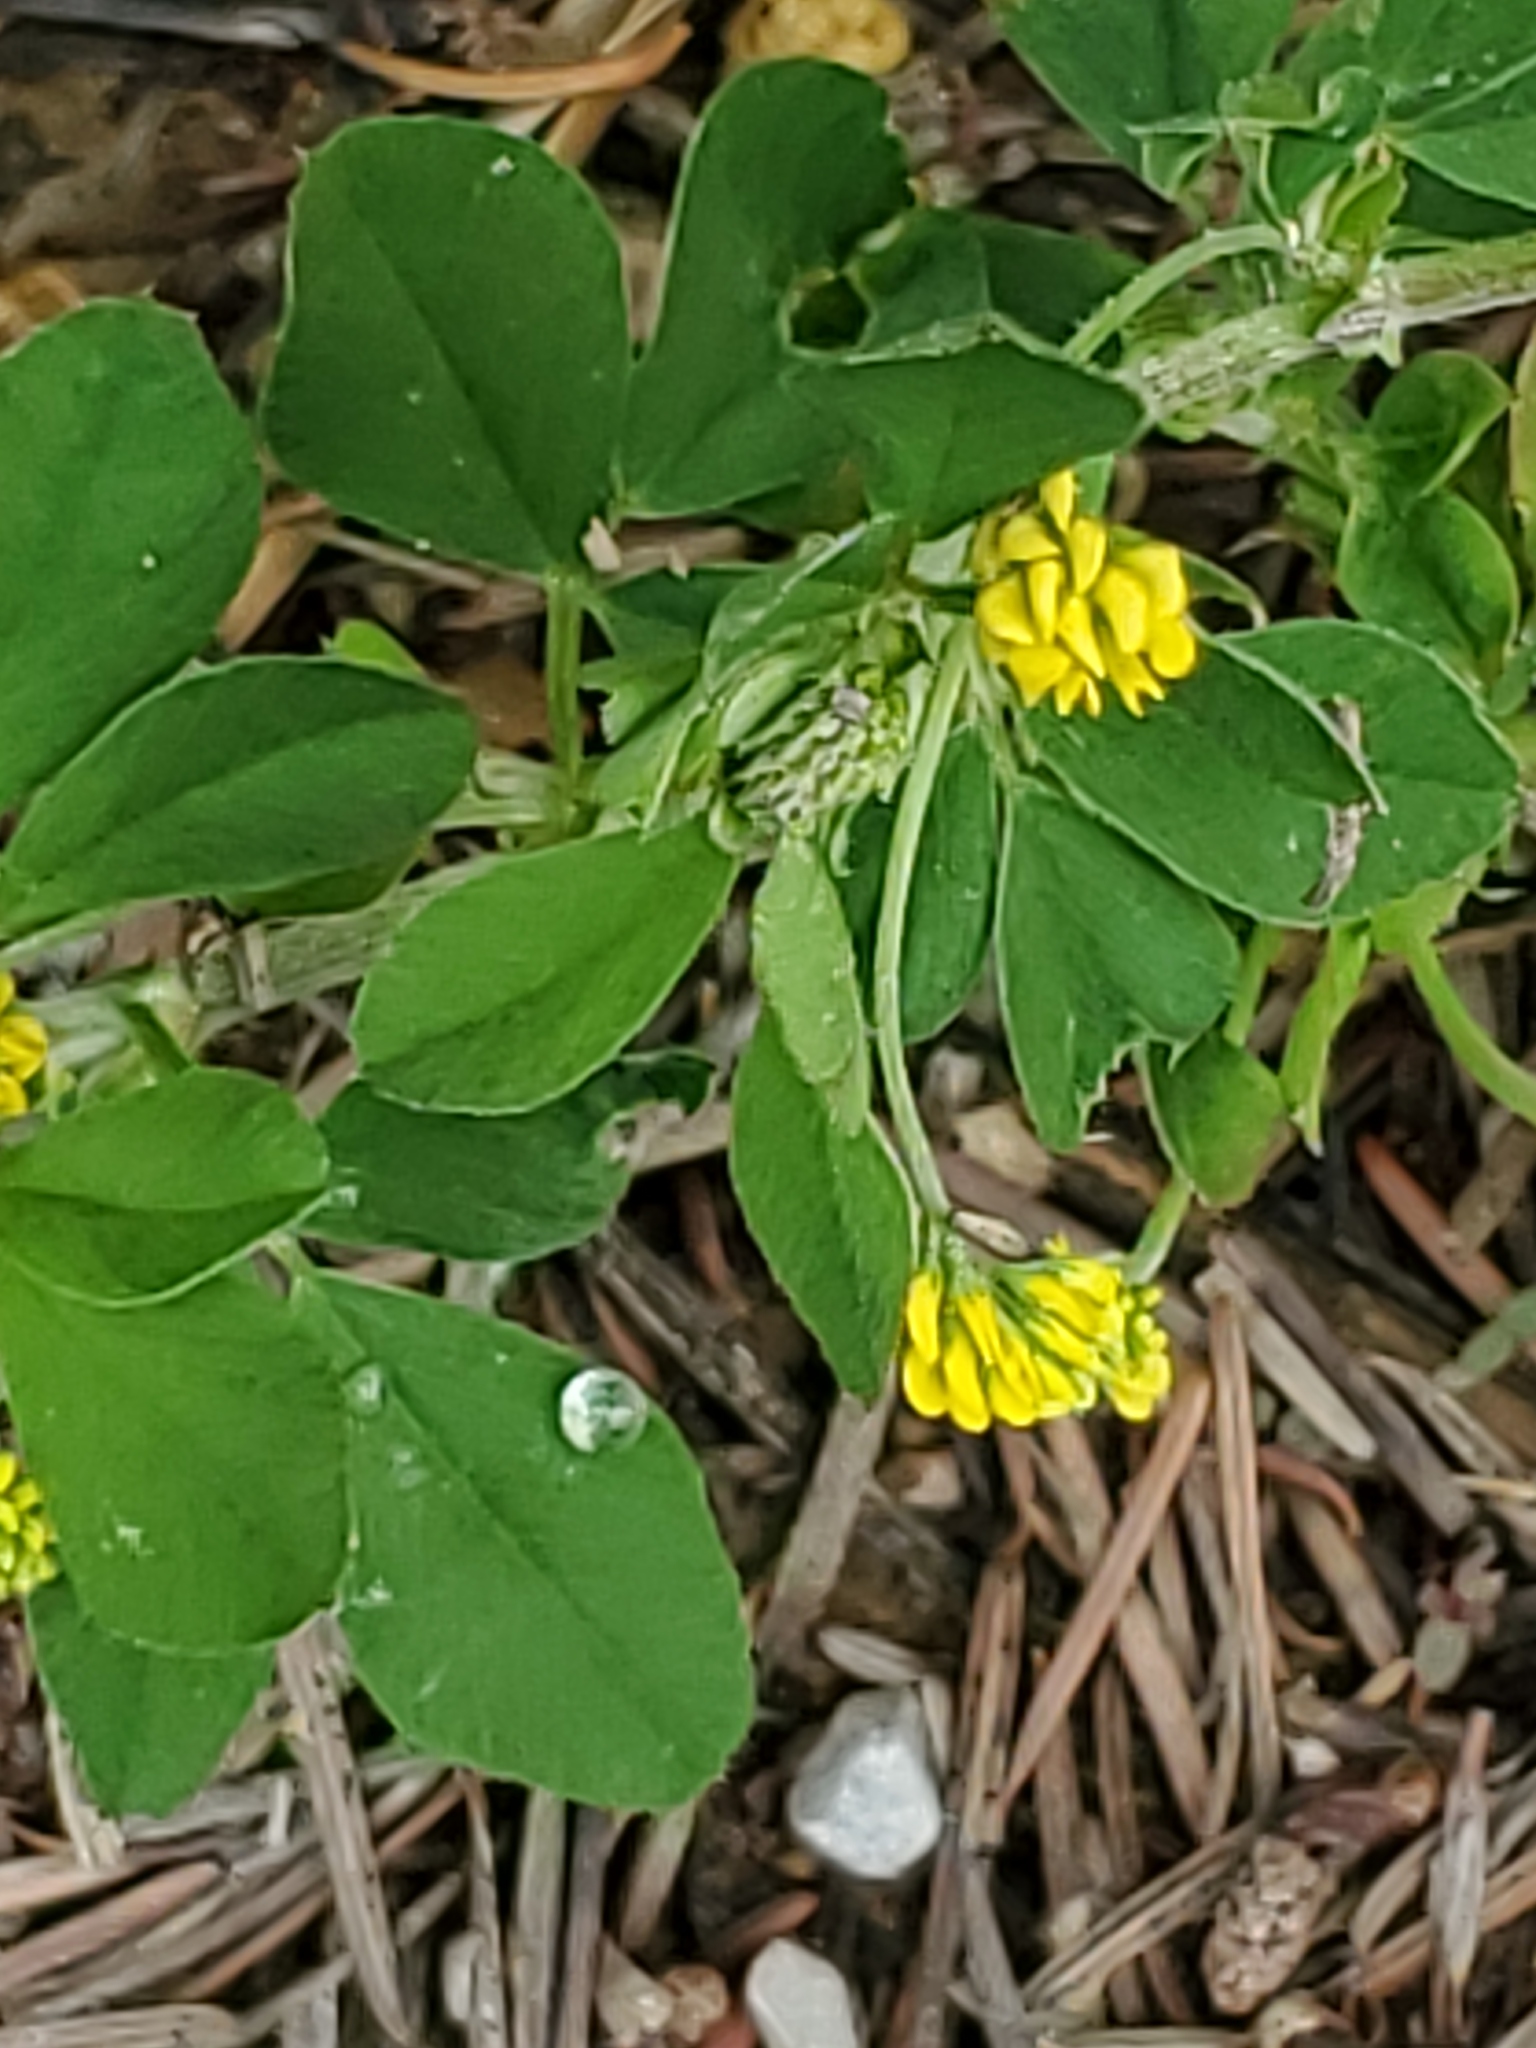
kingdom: Plantae
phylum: Tracheophyta
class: Magnoliopsida
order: Fabales
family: Fabaceae
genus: Medicago
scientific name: Medicago lupulina
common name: Black medick
